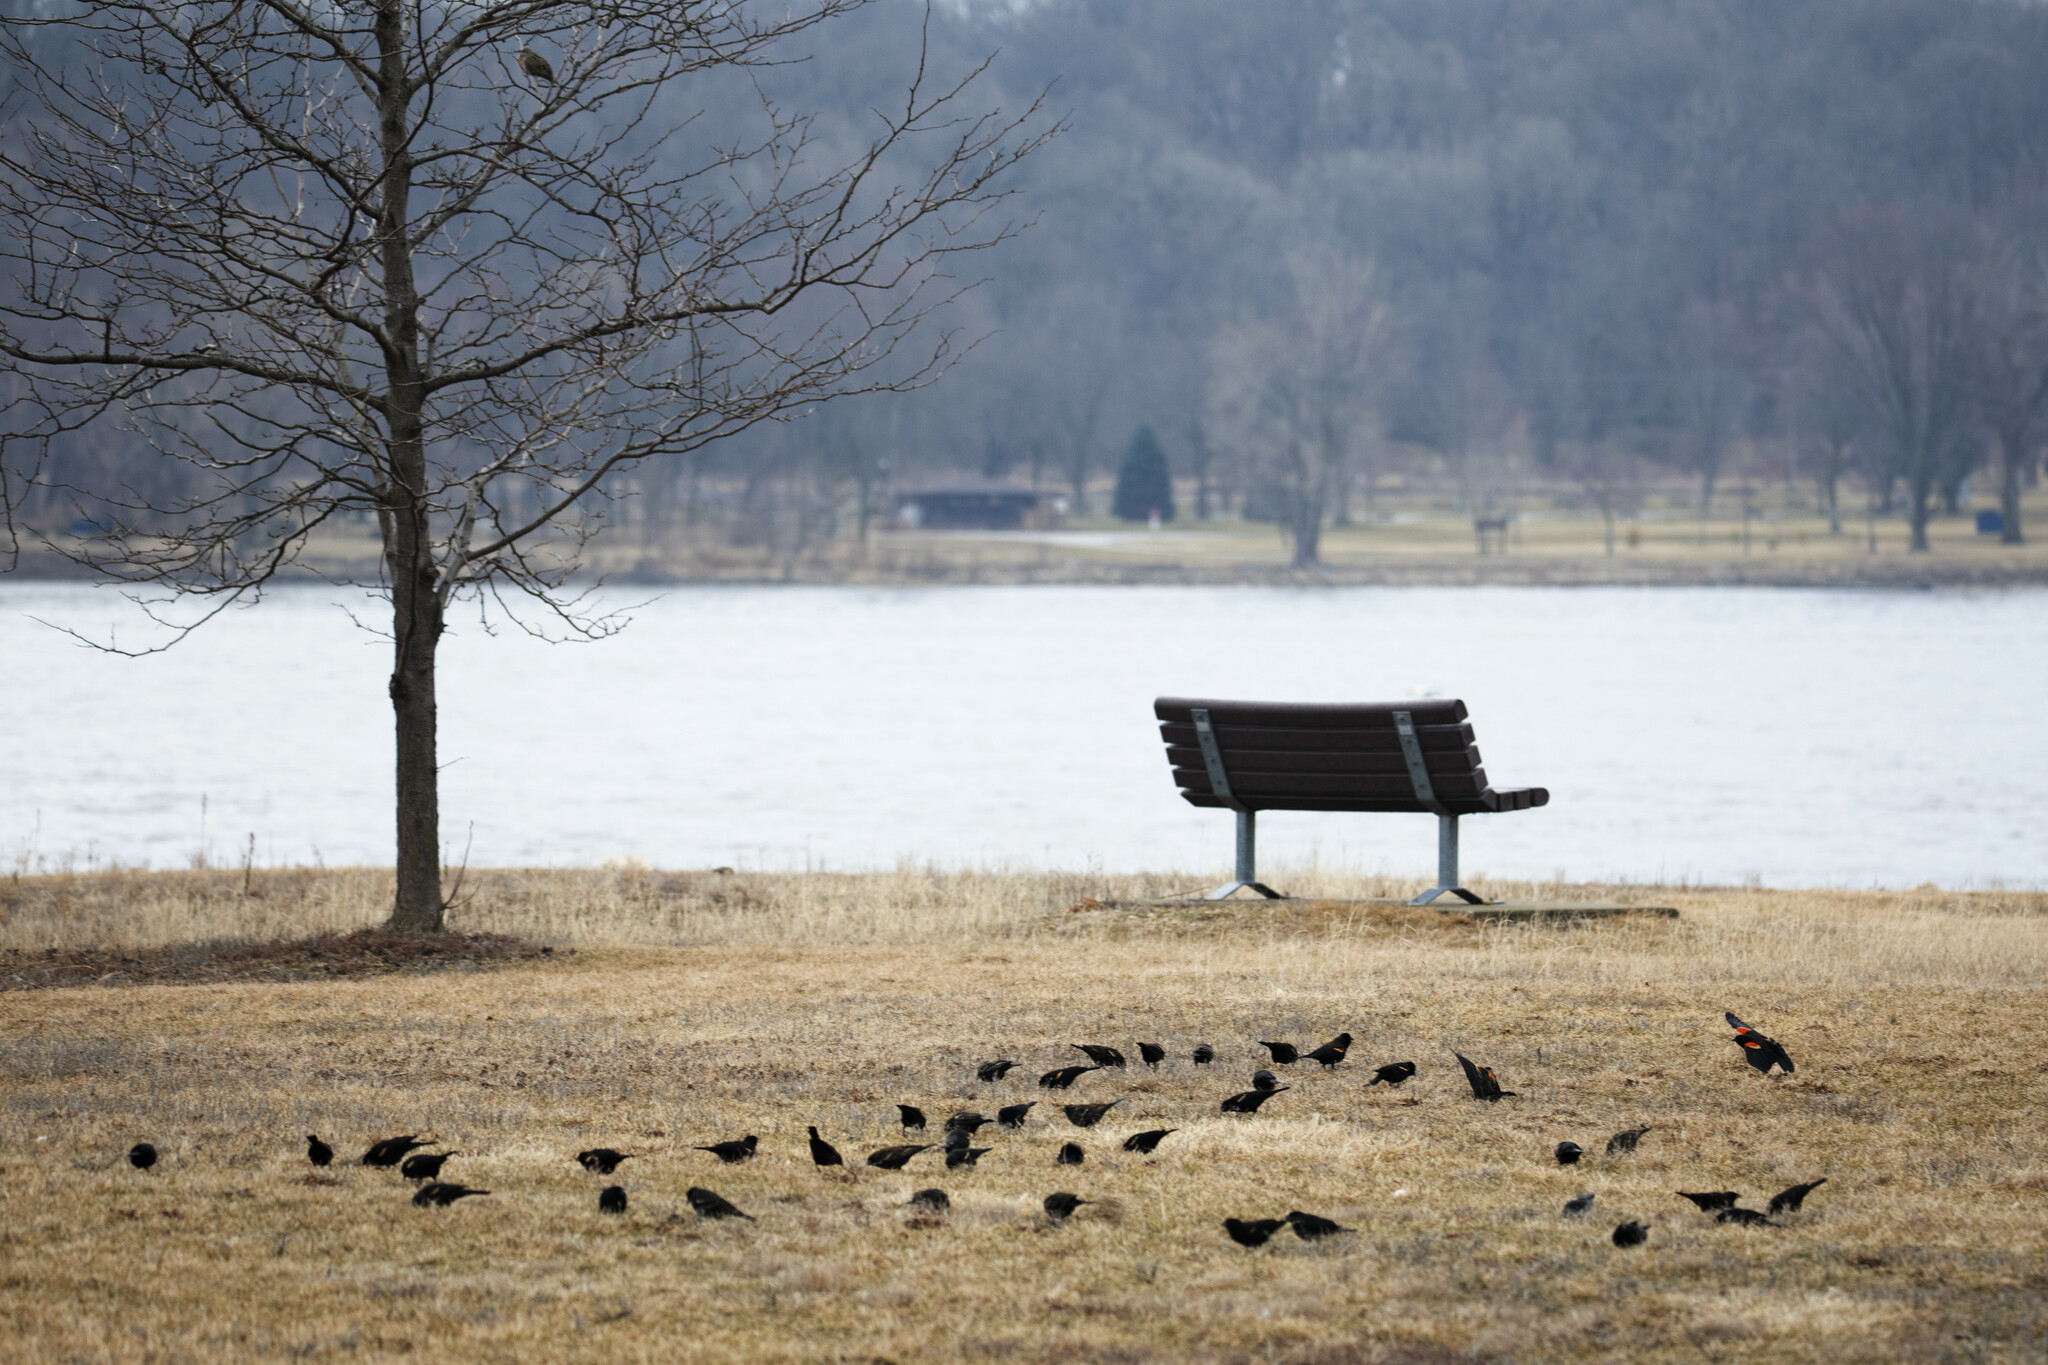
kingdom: Animalia
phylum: Chordata
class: Aves
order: Passeriformes
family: Icteridae
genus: Agelaius
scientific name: Agelaius phoeniceus
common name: Red-winged blackbird
